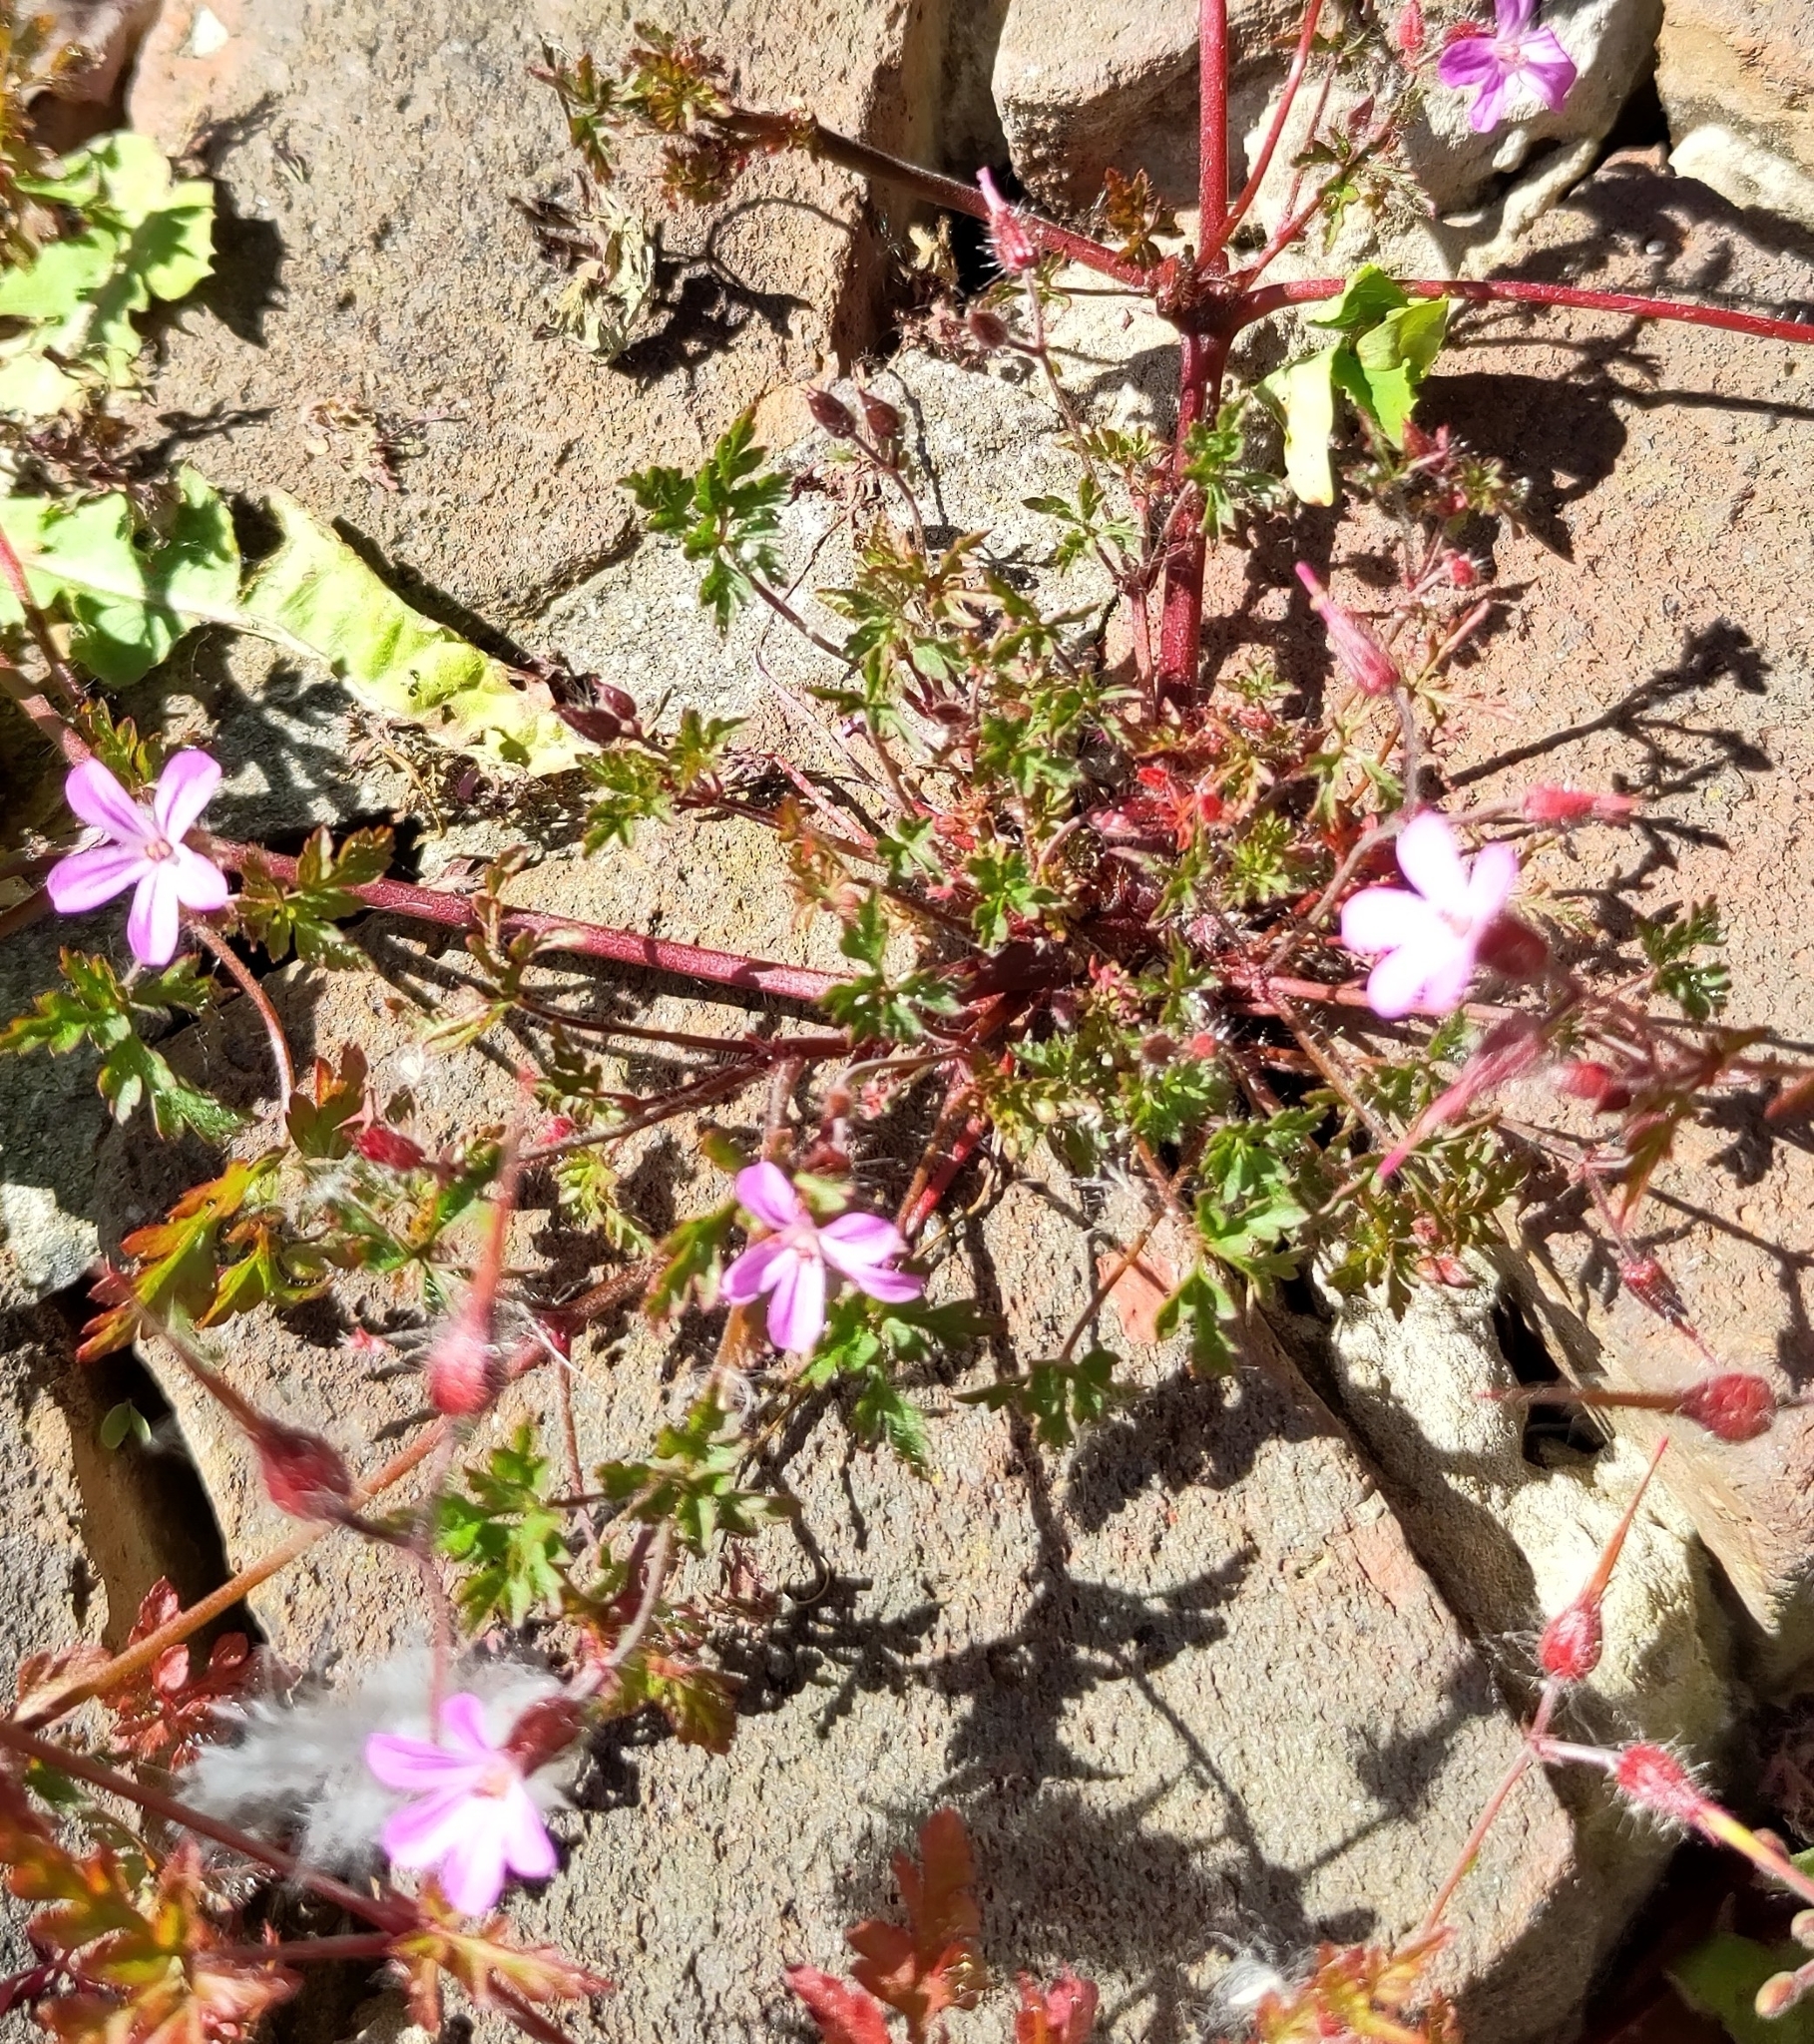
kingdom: Plantae
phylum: Tracheophyta
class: Magnoliopsida
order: Geraniales
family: Geraniaceae
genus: Geranium
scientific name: Geranium robertianum
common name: Herb-robert
